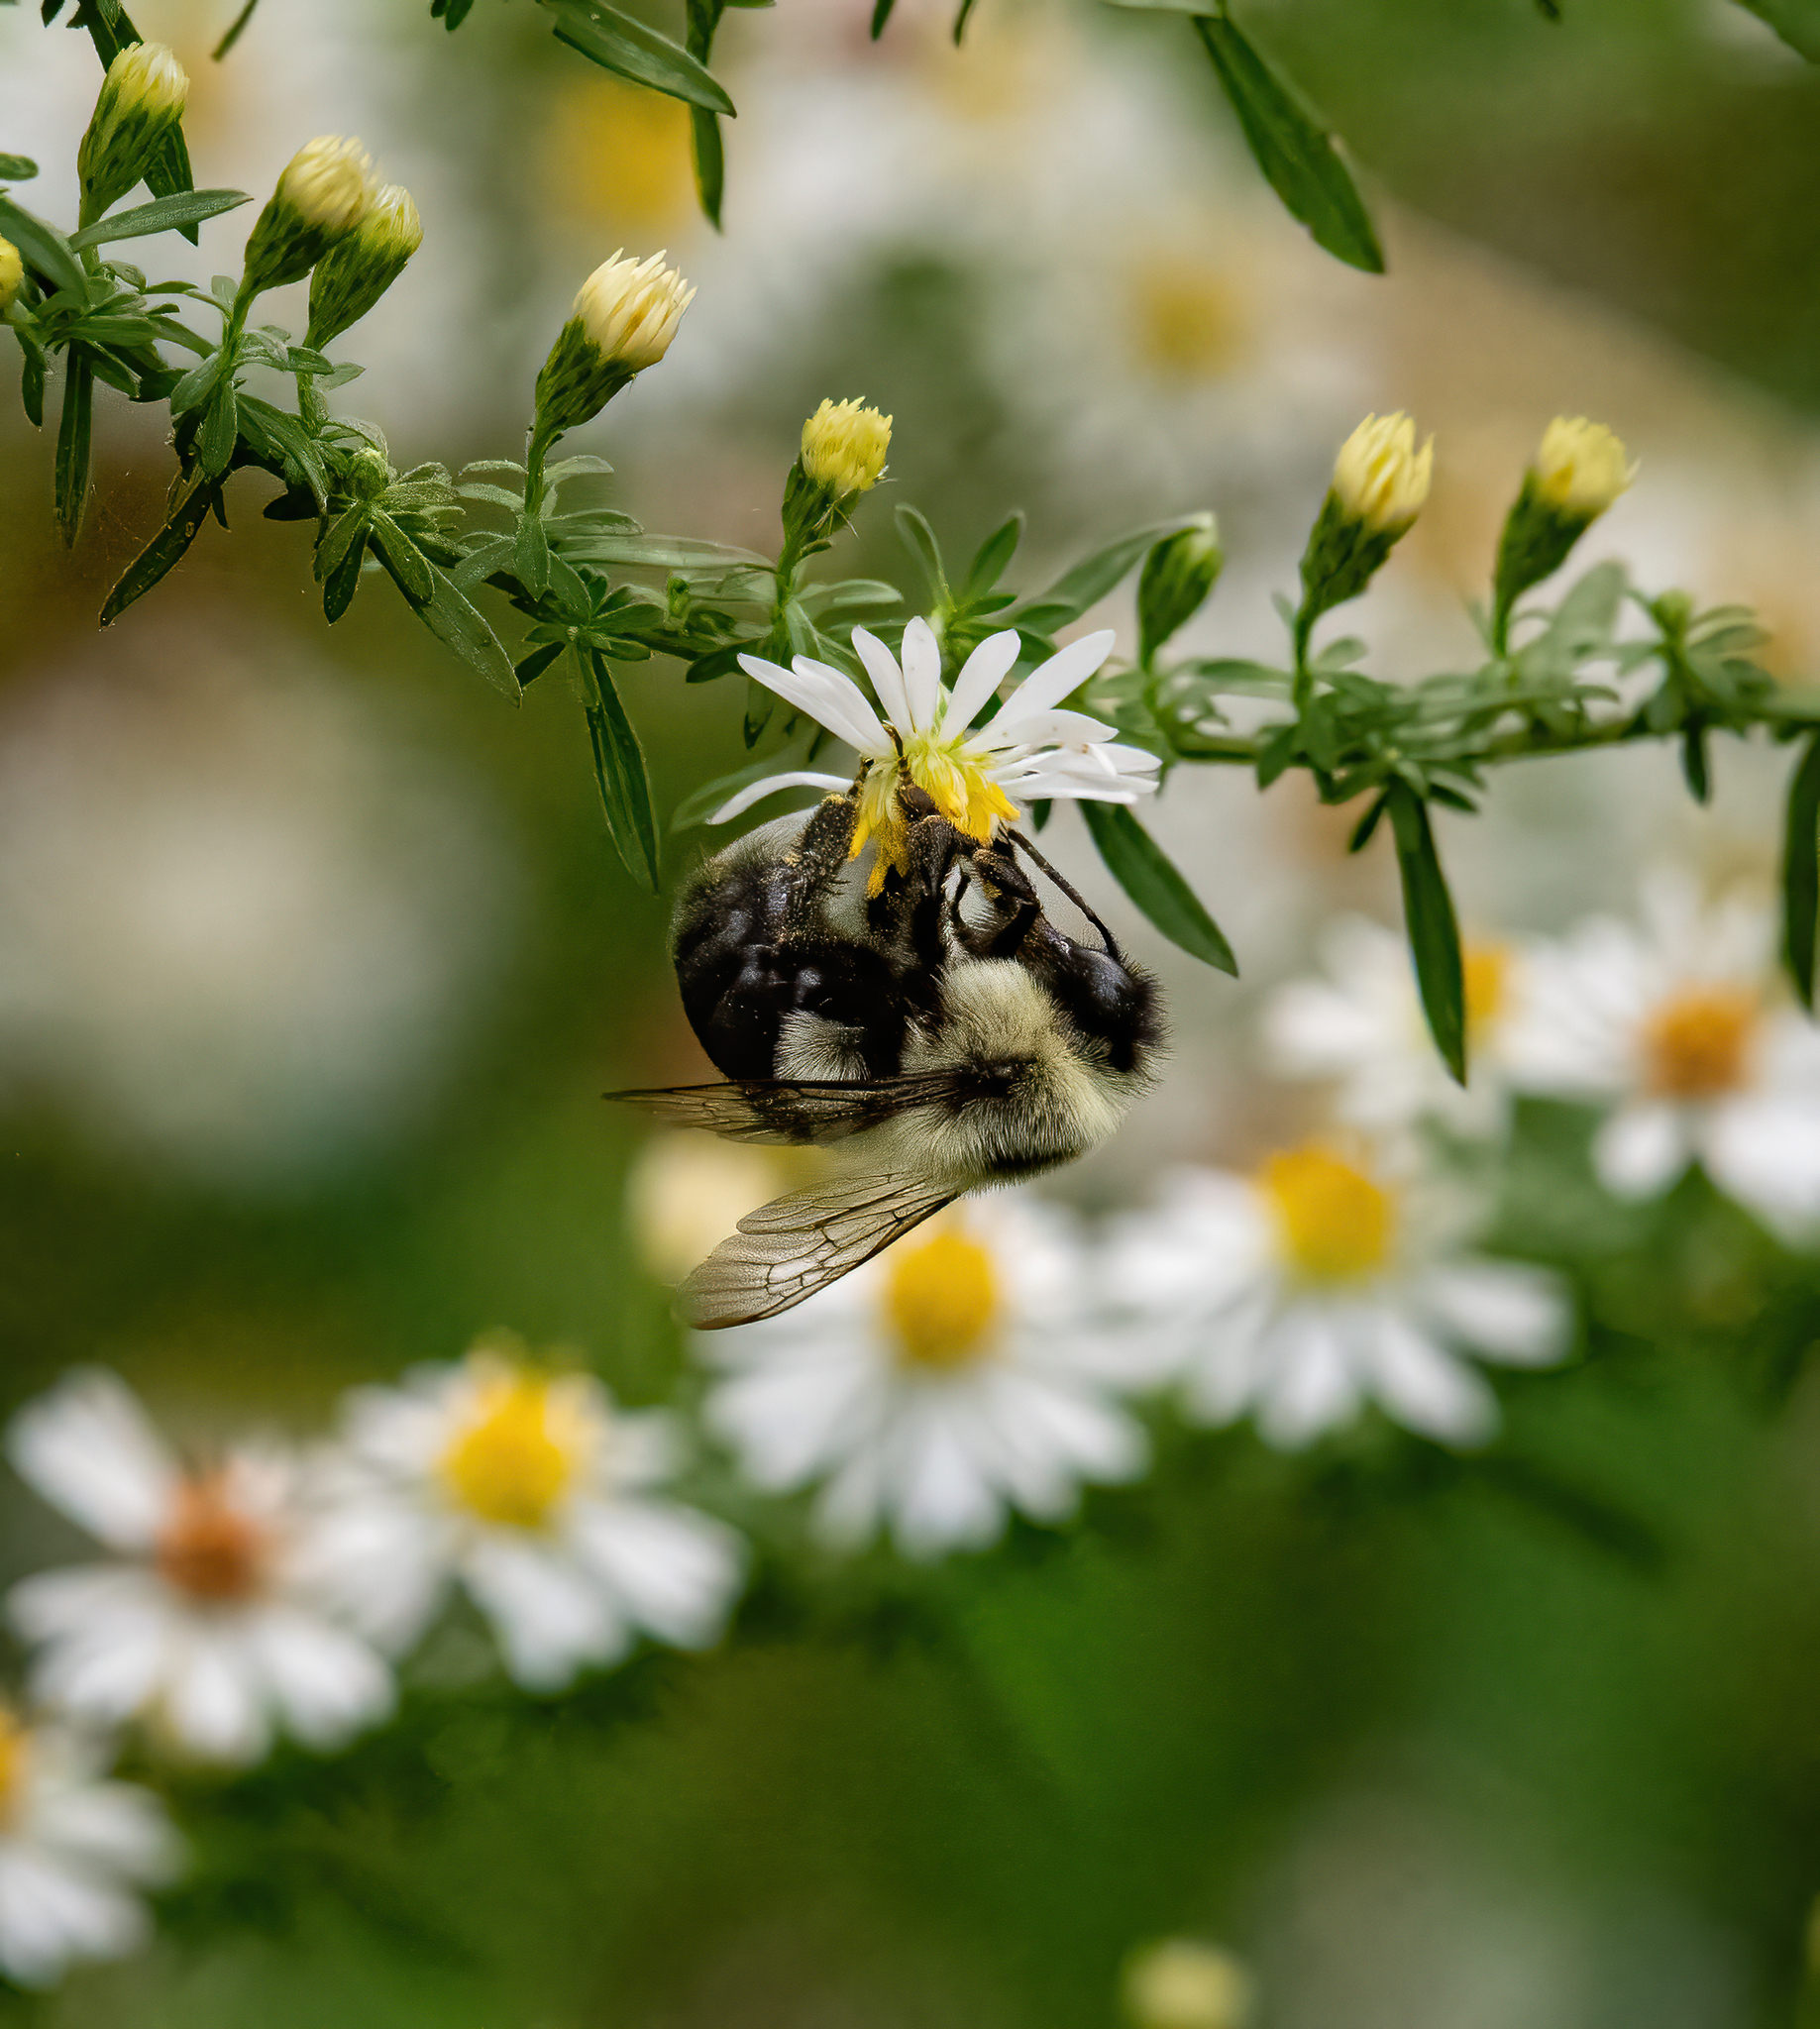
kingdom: Animalia
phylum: Arthropoda
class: Insecta
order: Hymenoptera
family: Apidae
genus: Bombus
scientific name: Bombus impatiens
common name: Common eastern bumble bee
